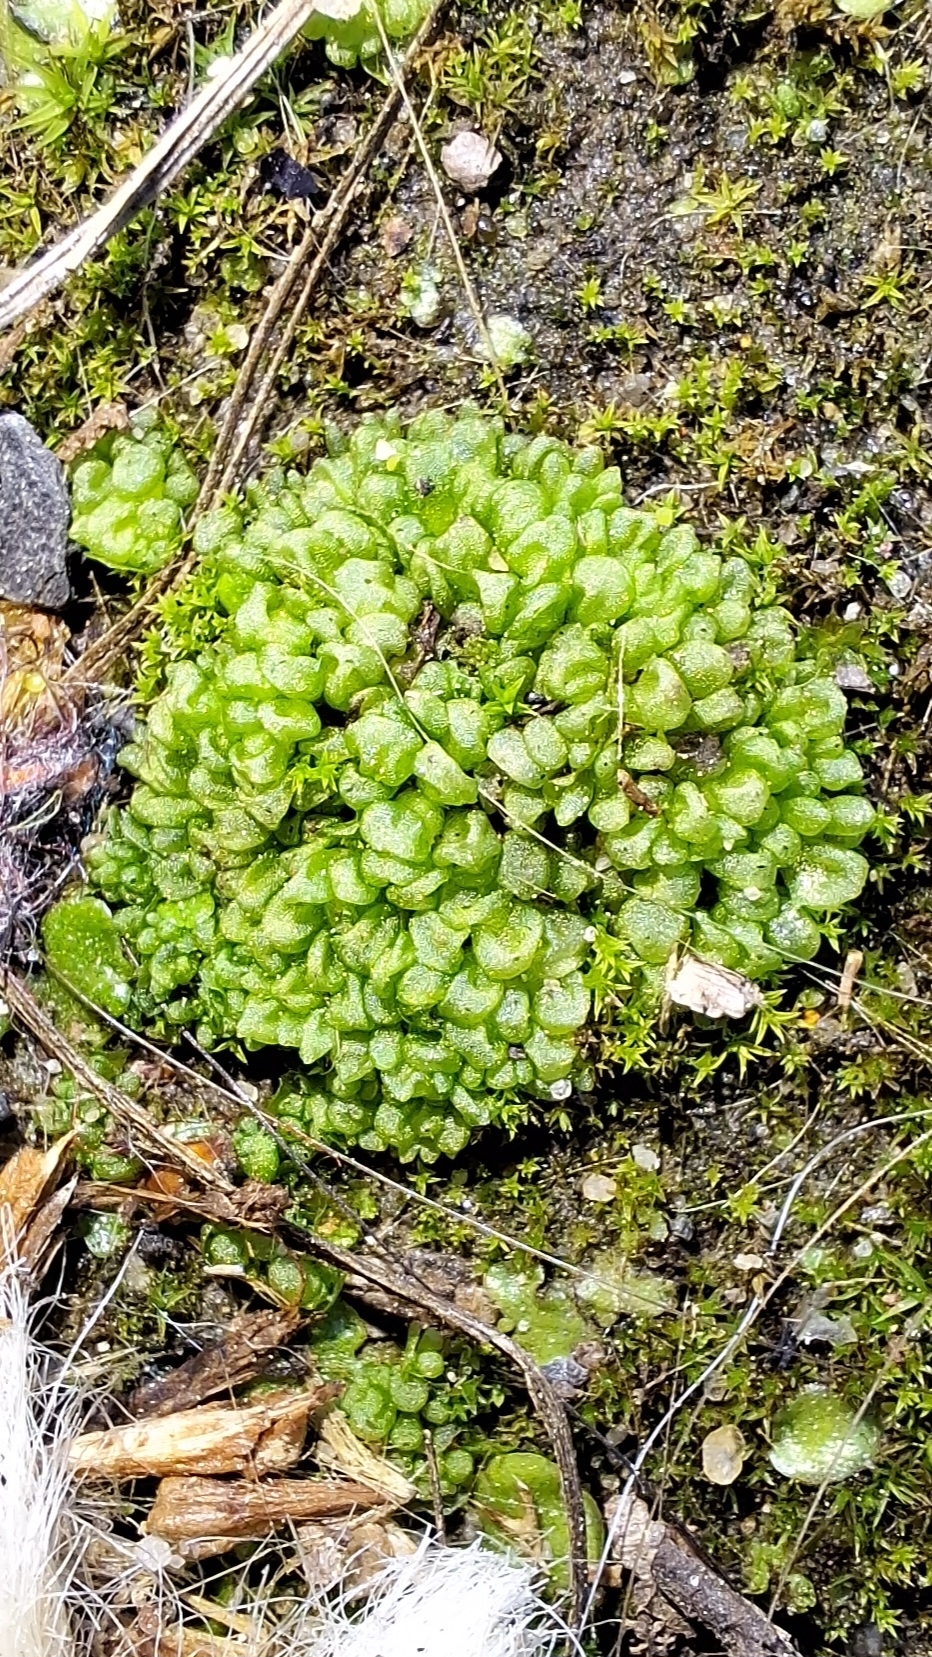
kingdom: Plantae
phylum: Marchantiophyta
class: Marchantiopsida
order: Sphaerocarpales
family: Sphaerocarpaceae
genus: Sphaerocarpos
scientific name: Sphaerocarpos texanus
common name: Texas balloonwort
